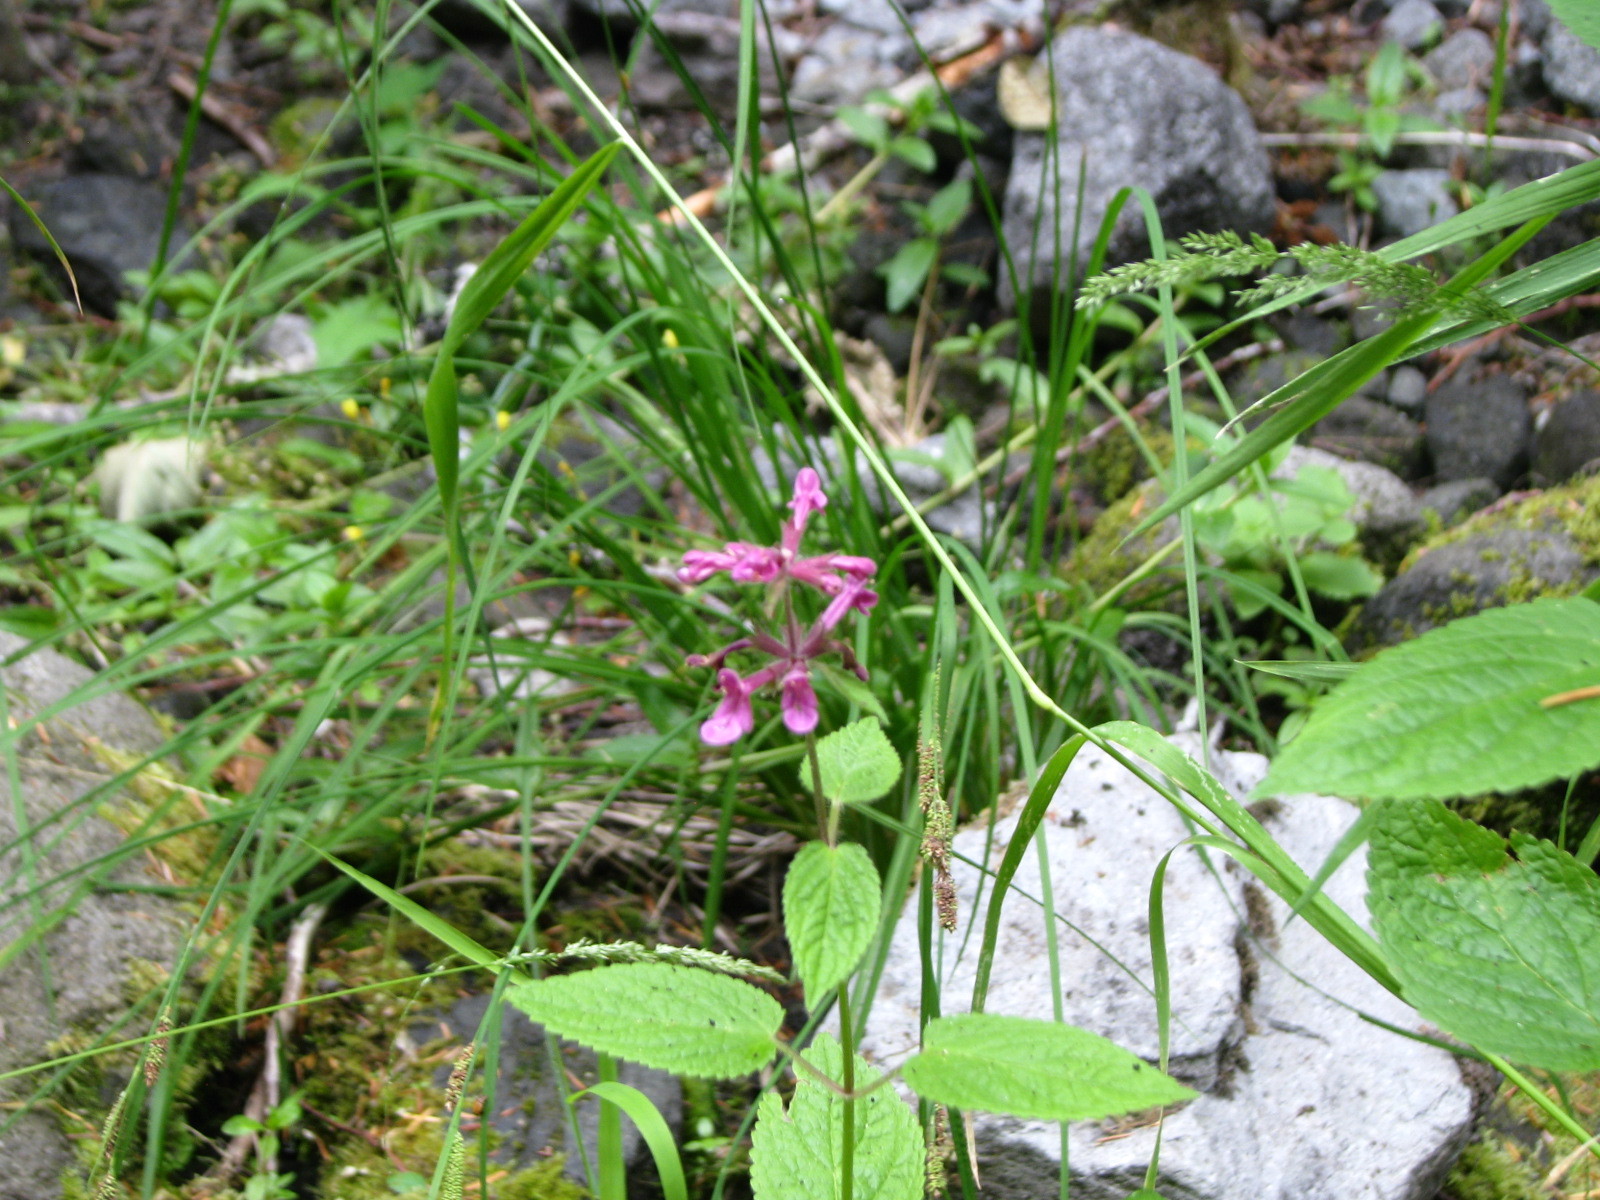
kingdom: Plantae
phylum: Tracheophyta
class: Magnoliopsida
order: Lamiales
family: Lamiaceae
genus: Stachys
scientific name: Stachys chamissonis
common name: Coastal hedge-nettle
